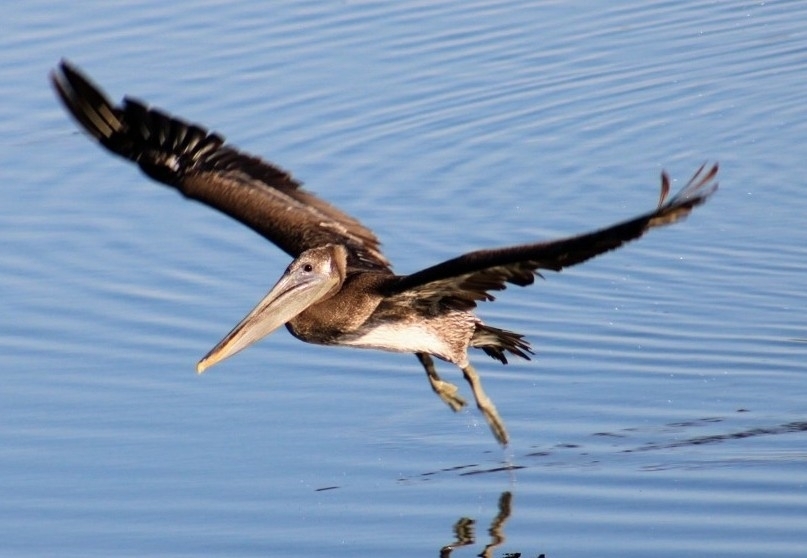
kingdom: Animalia
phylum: Chordata
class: Aves
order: Pelecaniformes
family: Pelecanidae
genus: Pelecanus
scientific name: Pelecanus occidentalis
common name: Brown pelican
